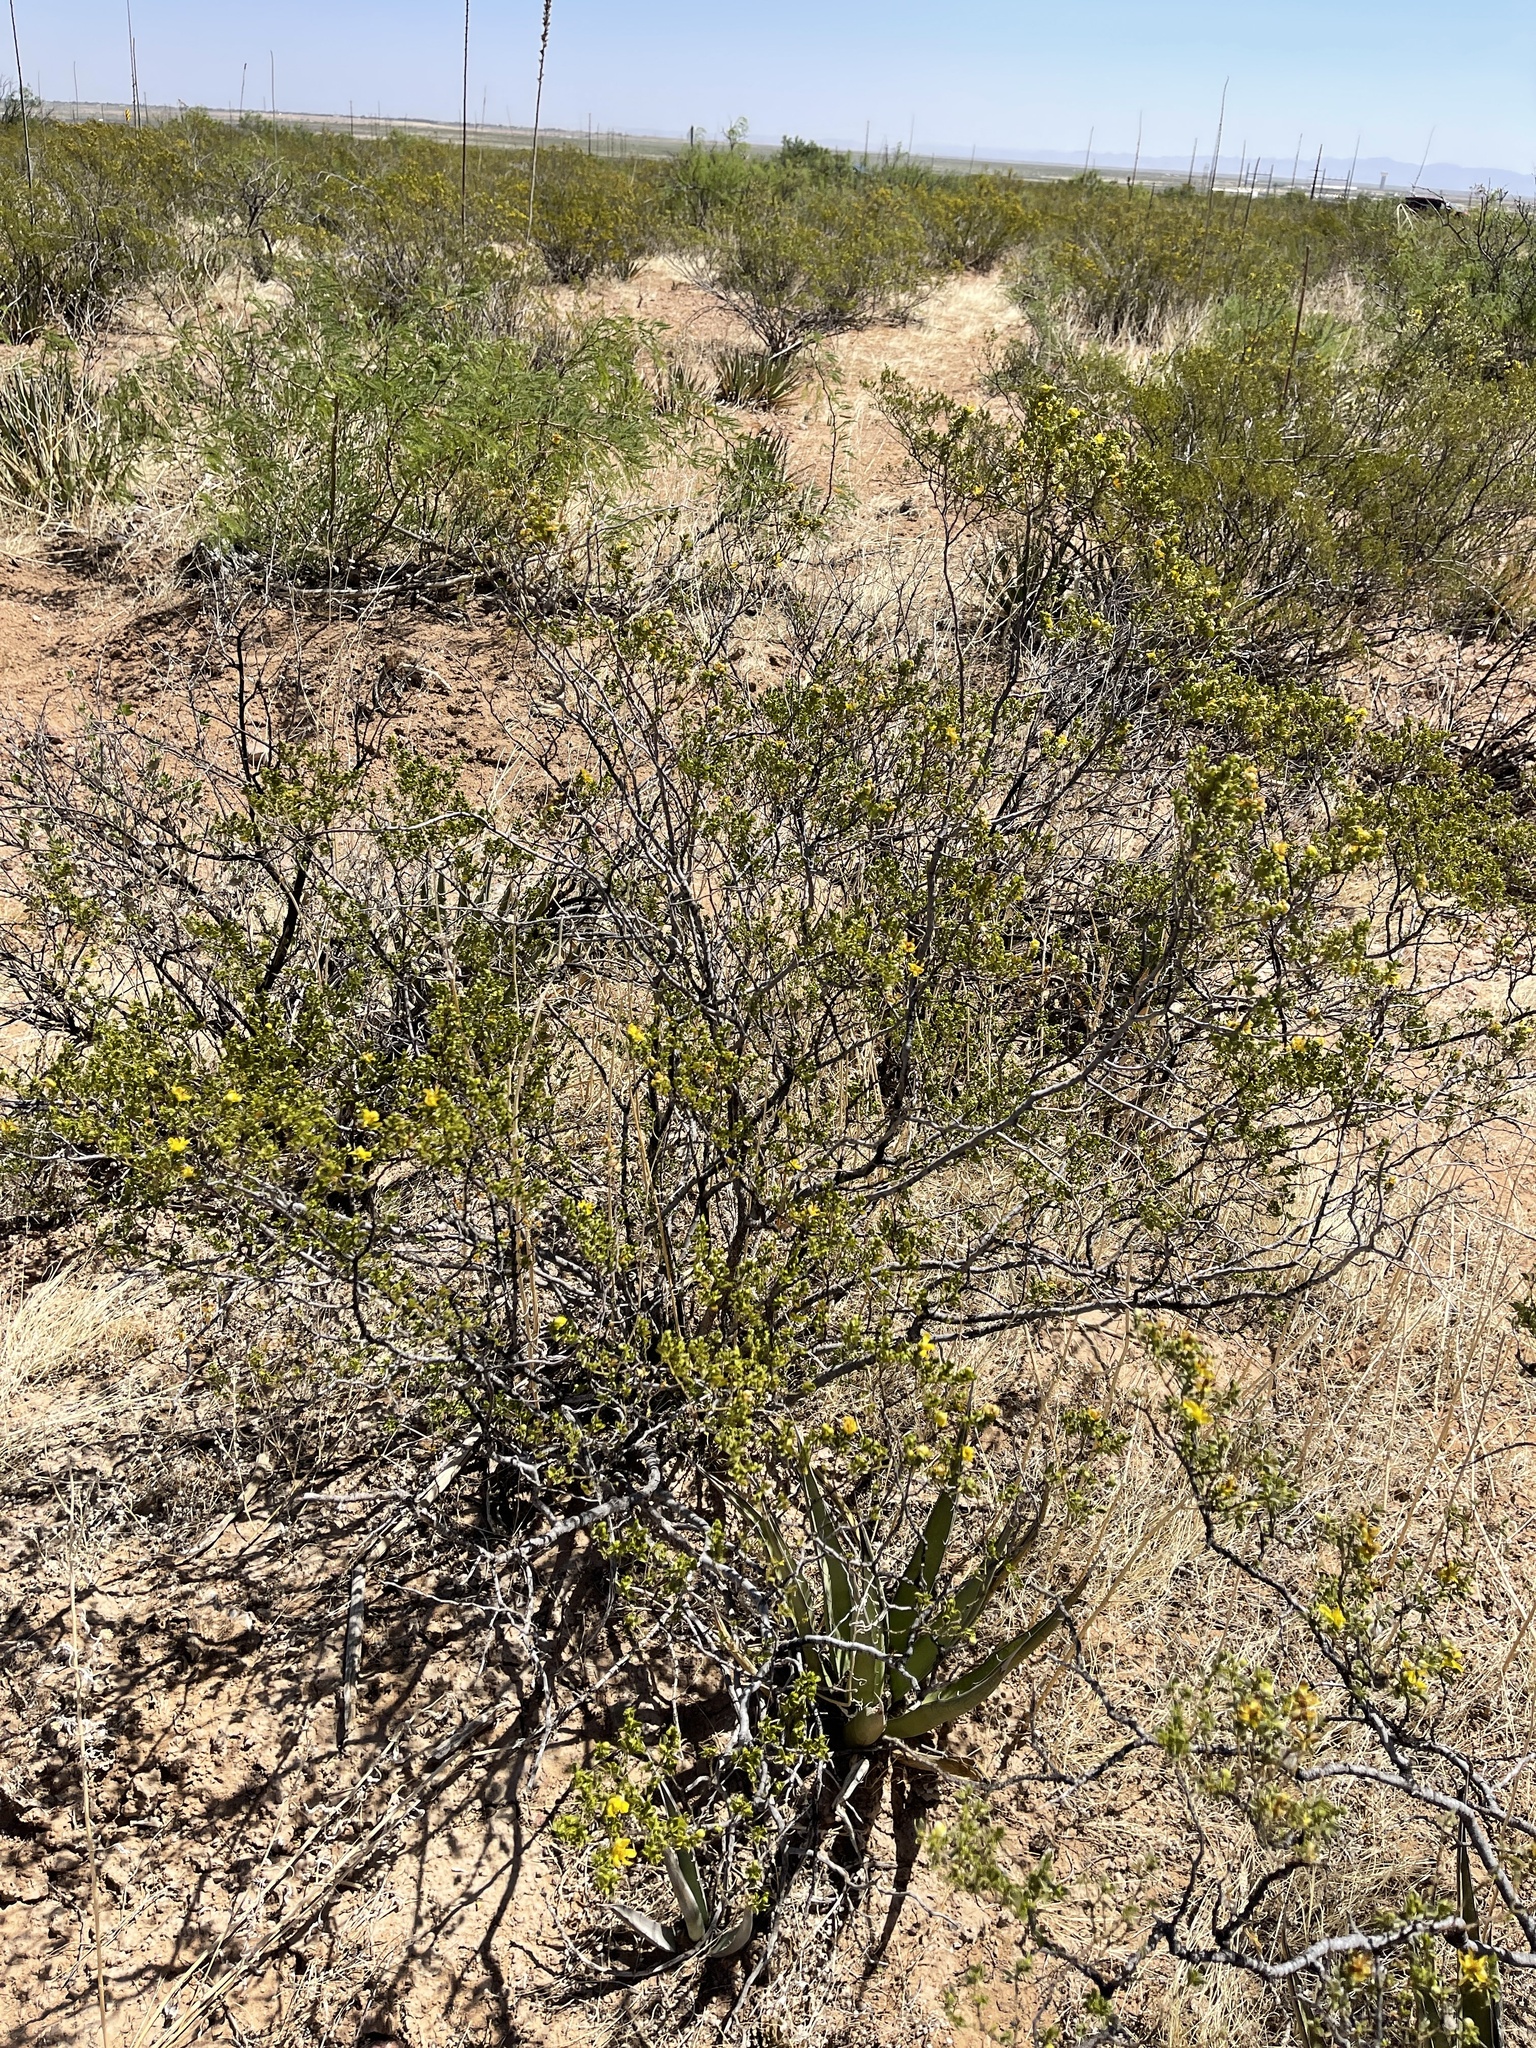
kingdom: Plantae
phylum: Tracheophyta
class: Magnoliopsida
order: Zygophyllales
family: Zygophyllaceae
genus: Larrea
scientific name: Larrea tridentata
